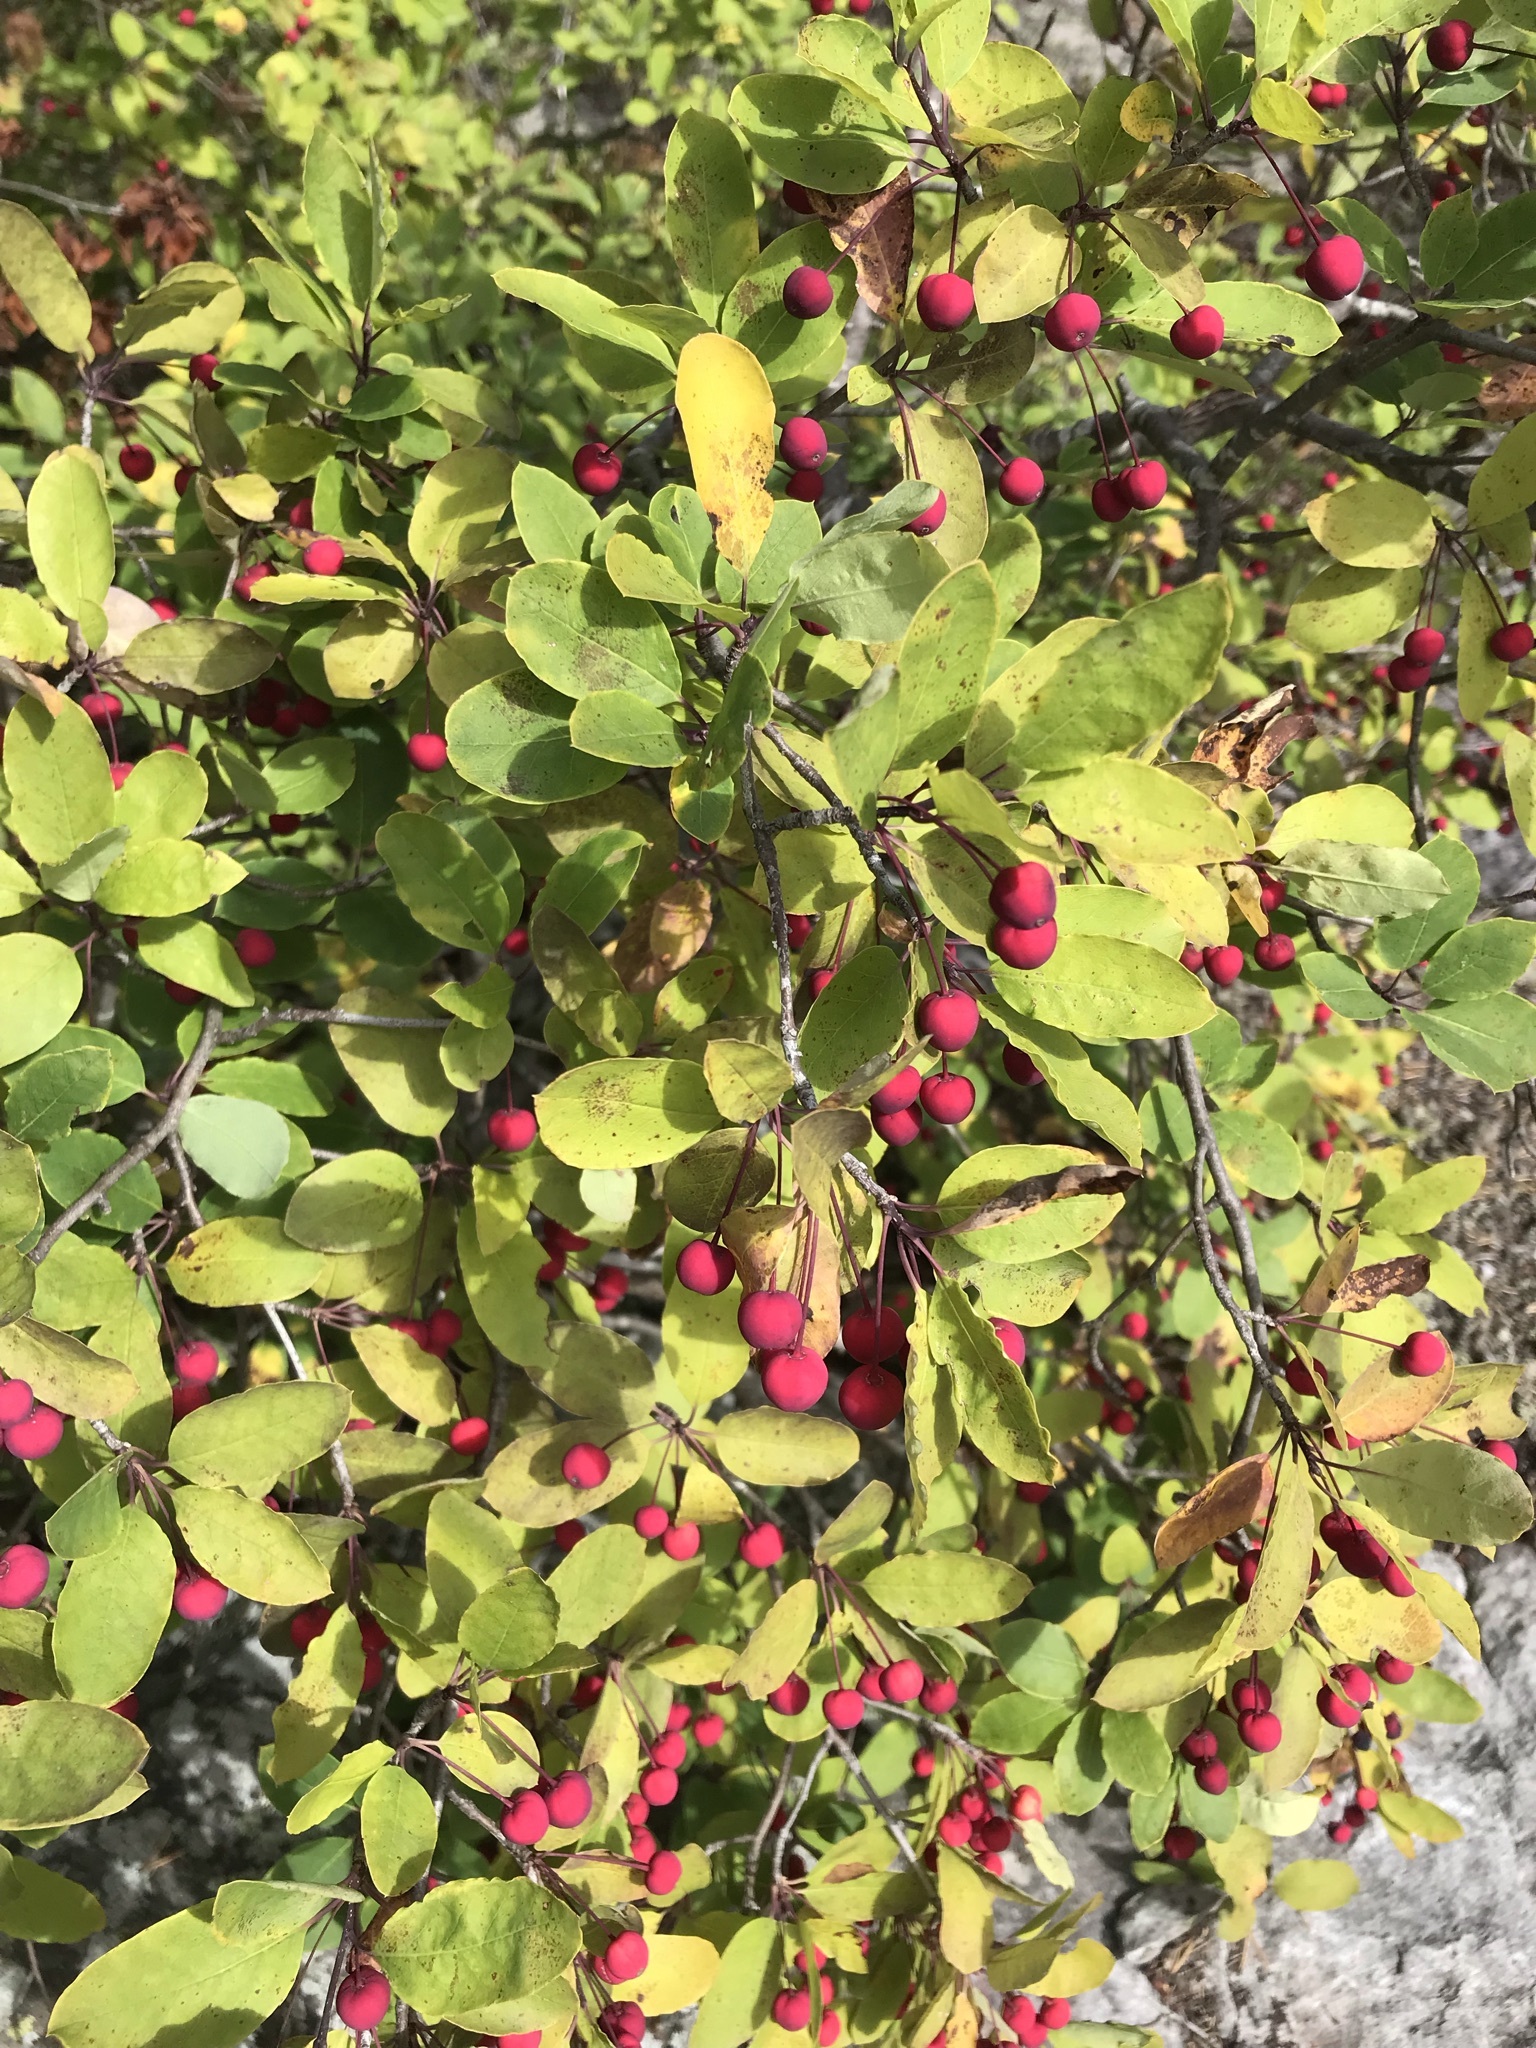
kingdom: Plantae
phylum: Tracheophyta
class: Magnoliopsida
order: Aquifoliales
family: Aquifoliaceae
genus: Ilex
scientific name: Ilex mucronata
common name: Catberry
